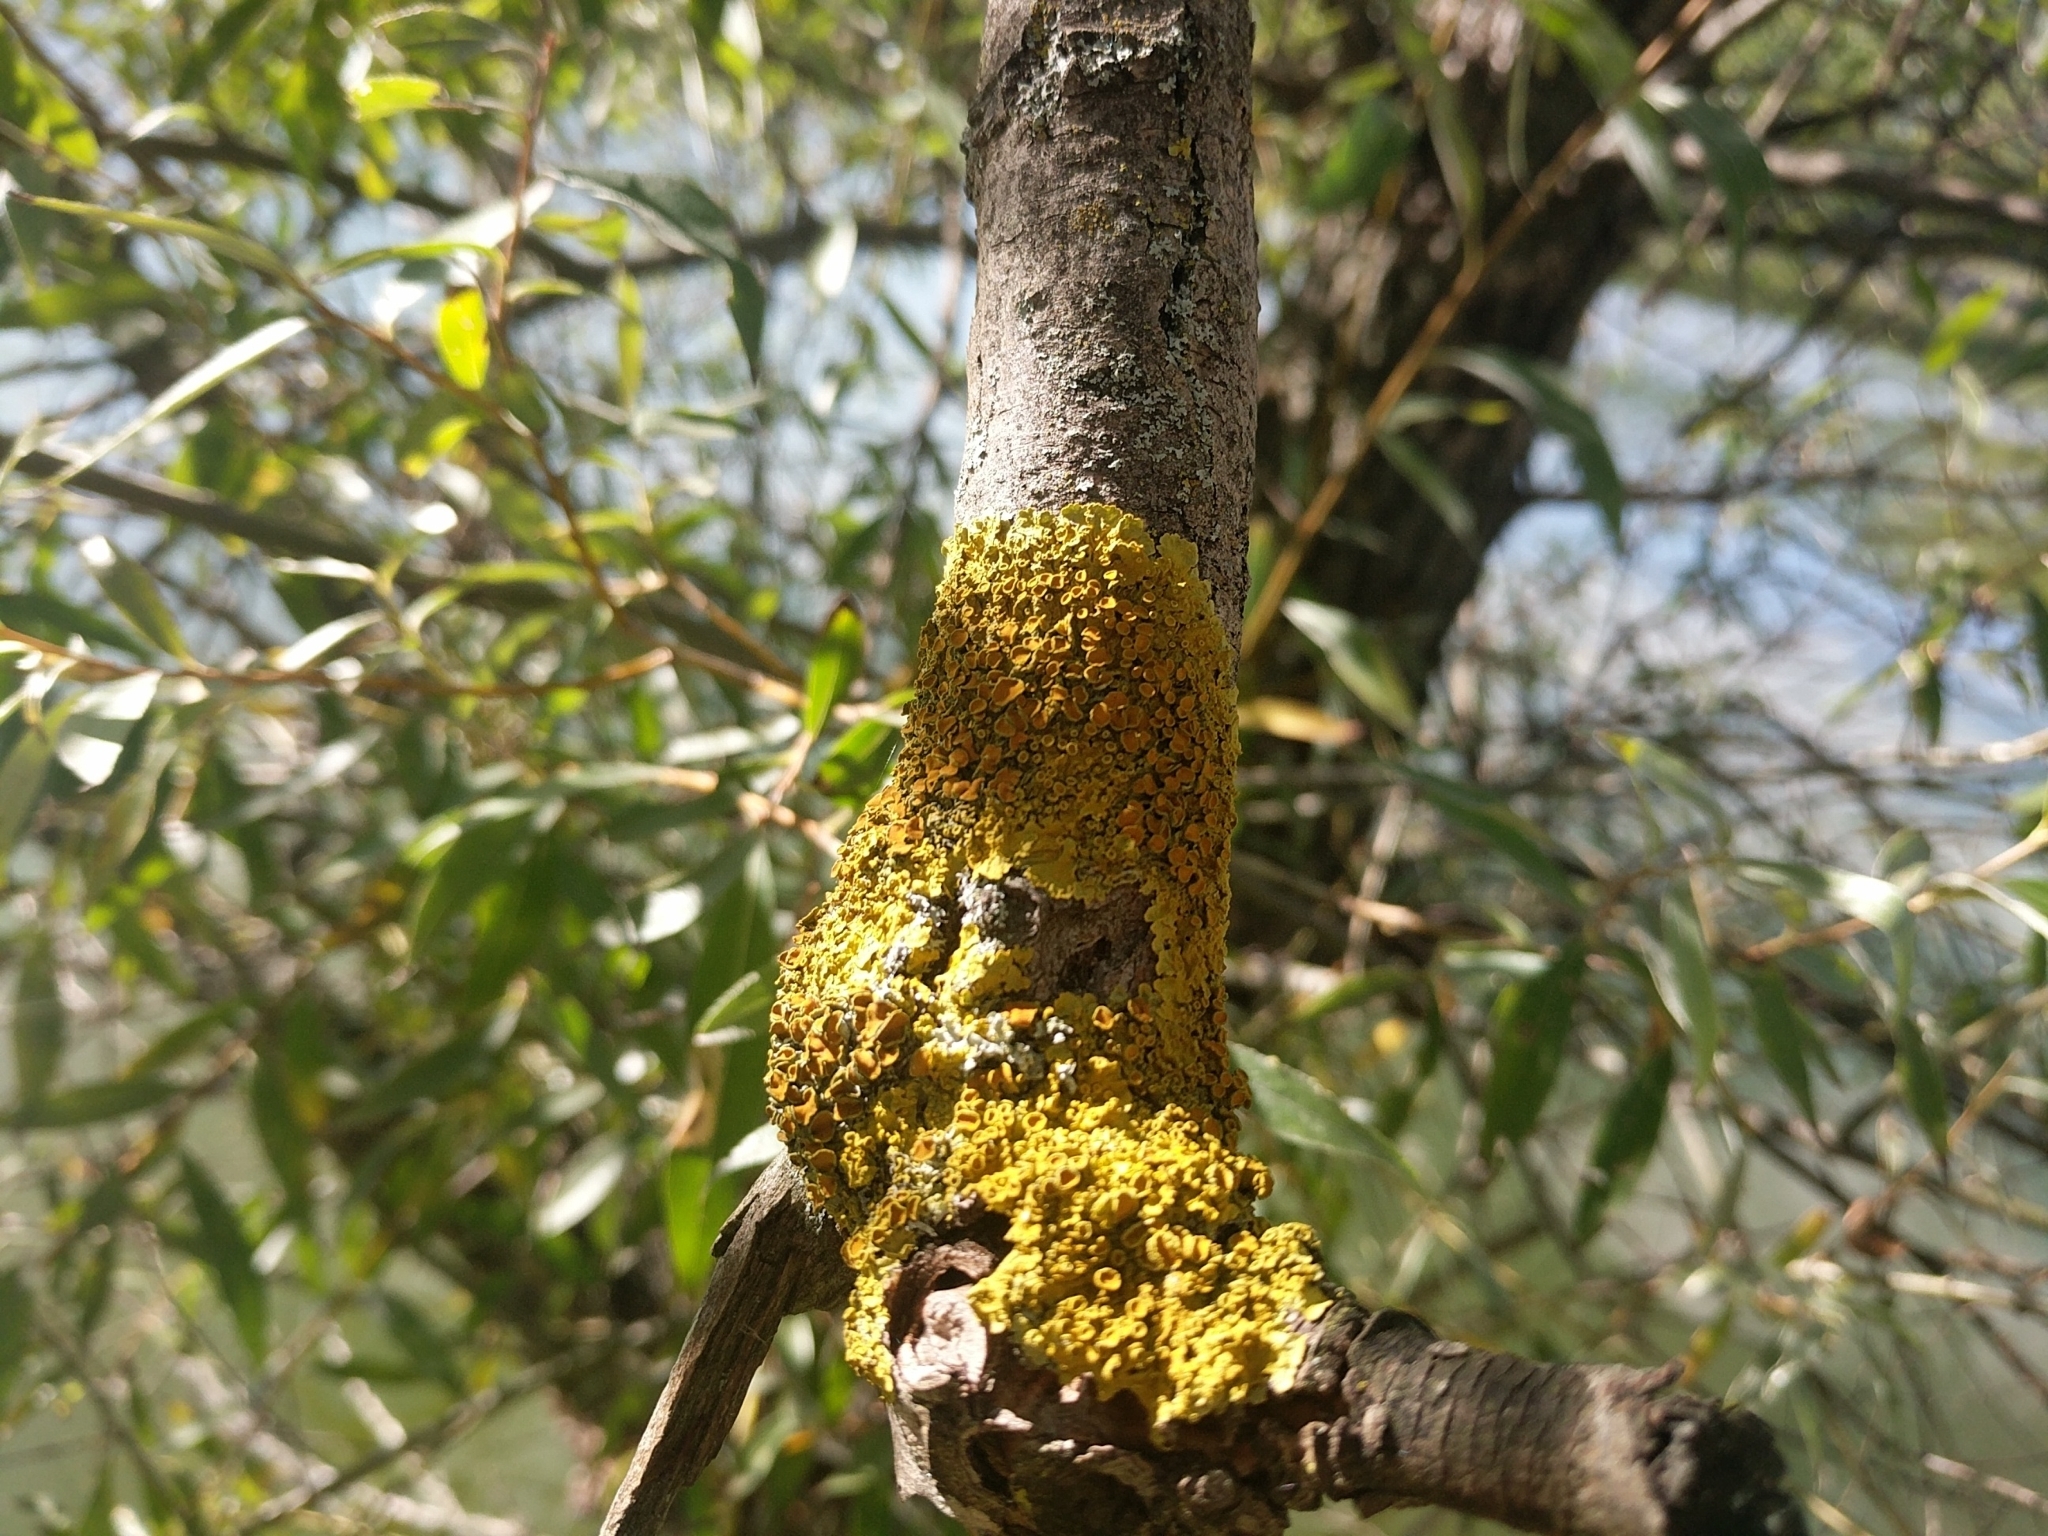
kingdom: Fungi
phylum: Ascomycota
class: Lecanoromycetes
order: Teloschistales
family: Teloschistaceae
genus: Xanthoria
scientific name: Xanthoria parietina
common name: Common orange lichen
